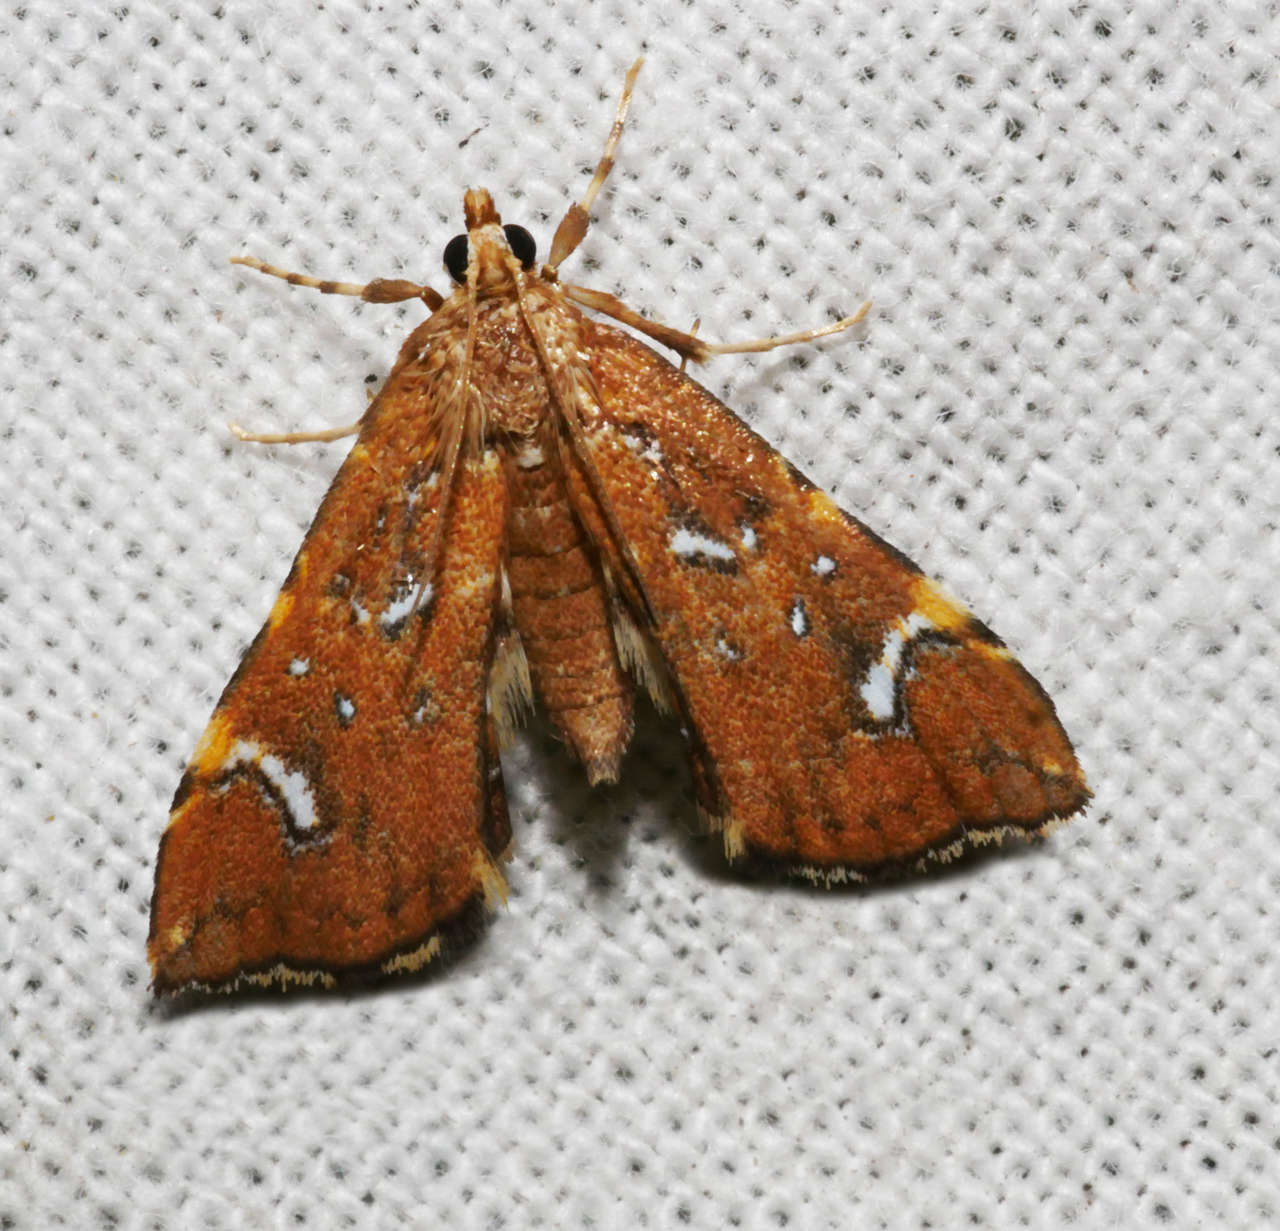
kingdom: Animalia
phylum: Arthropoda
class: Insecta
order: Lepidoptera
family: Pyralidae
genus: Musotima
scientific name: Musotima nitidalis
